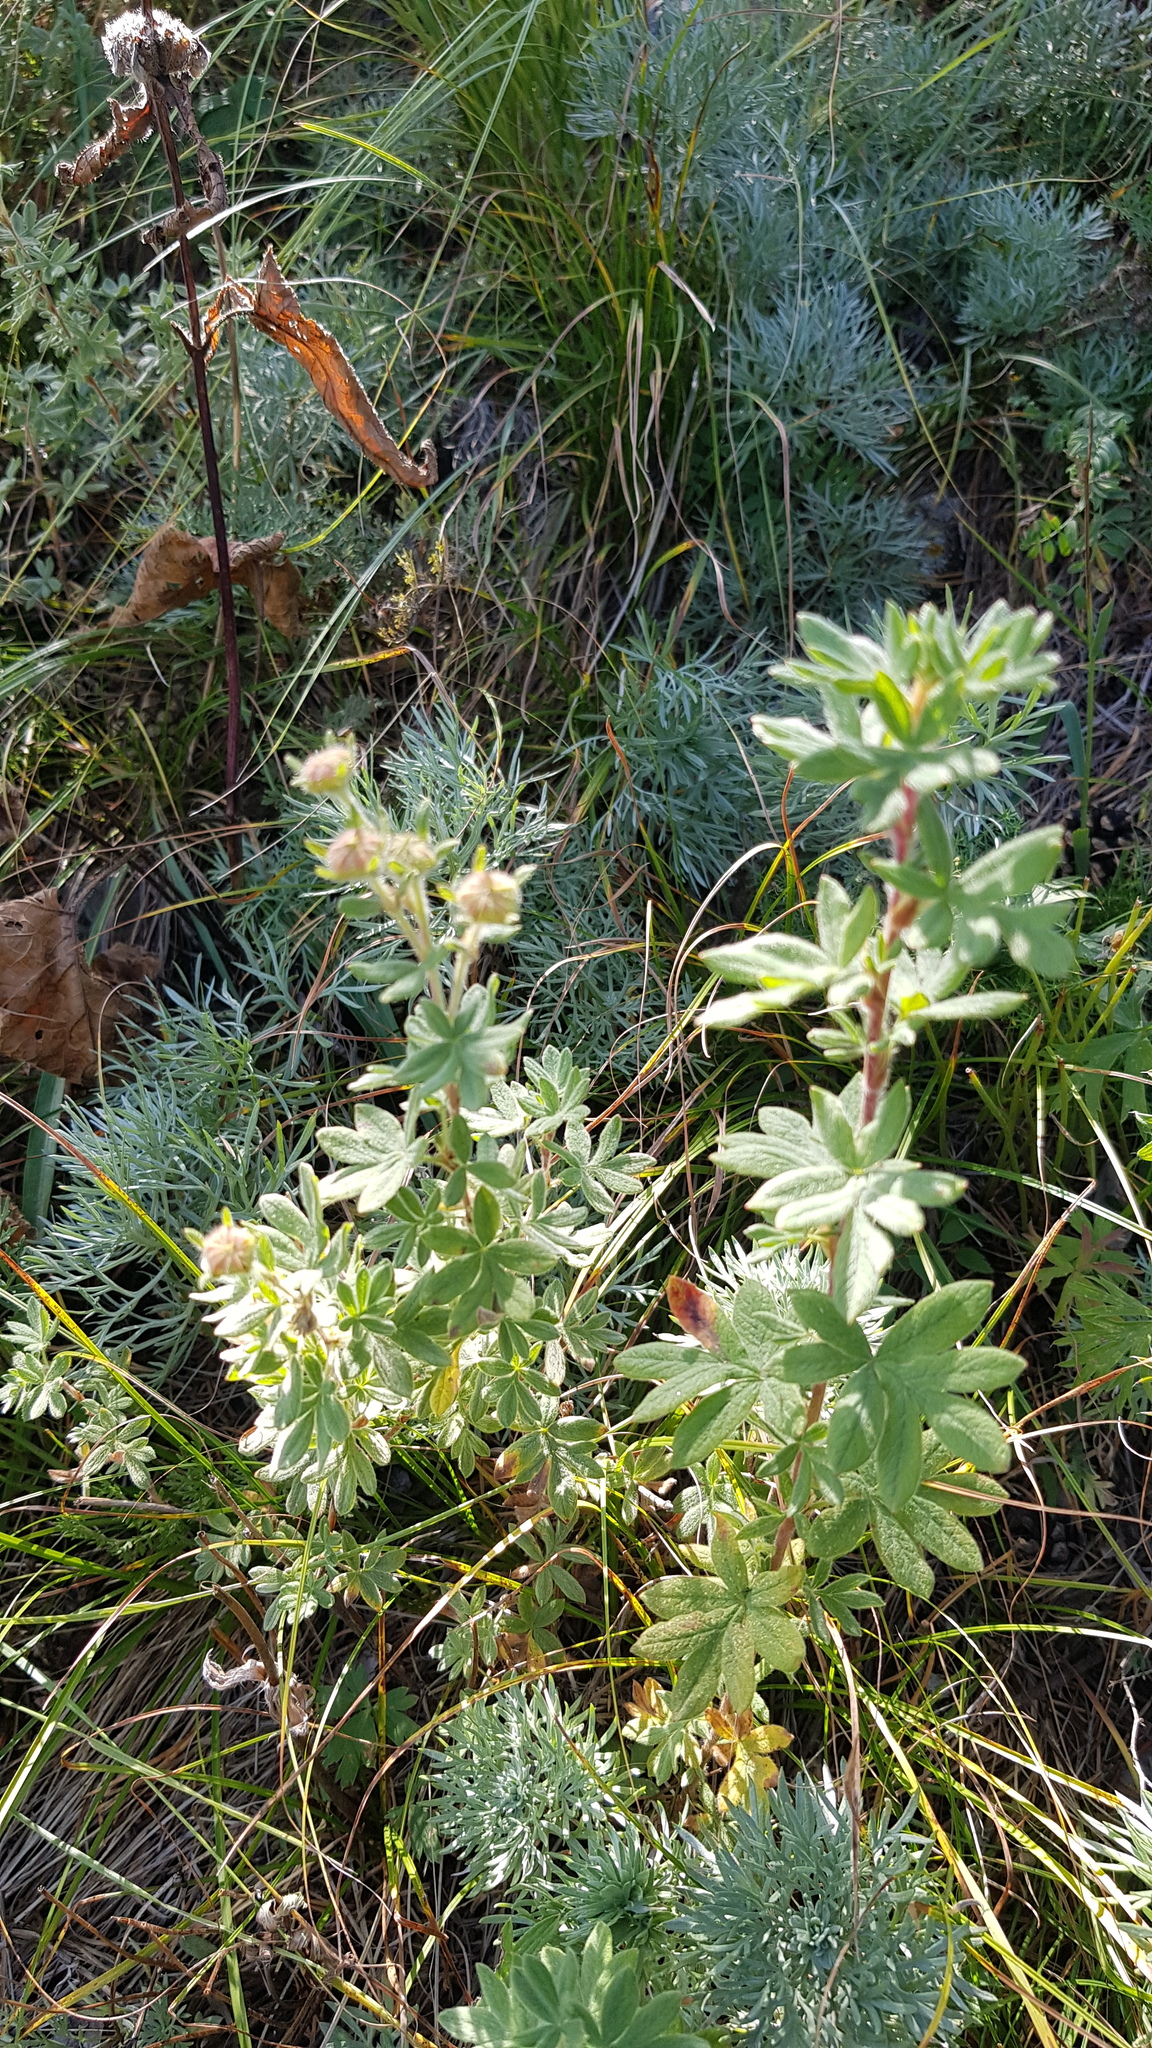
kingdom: Plantae
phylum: Tracheophyta
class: Magnoliopsida
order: Rosales
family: Rosaceae
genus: Dasiphora
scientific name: Dasiphora fruticosa
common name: Shrubby cinquefoil
